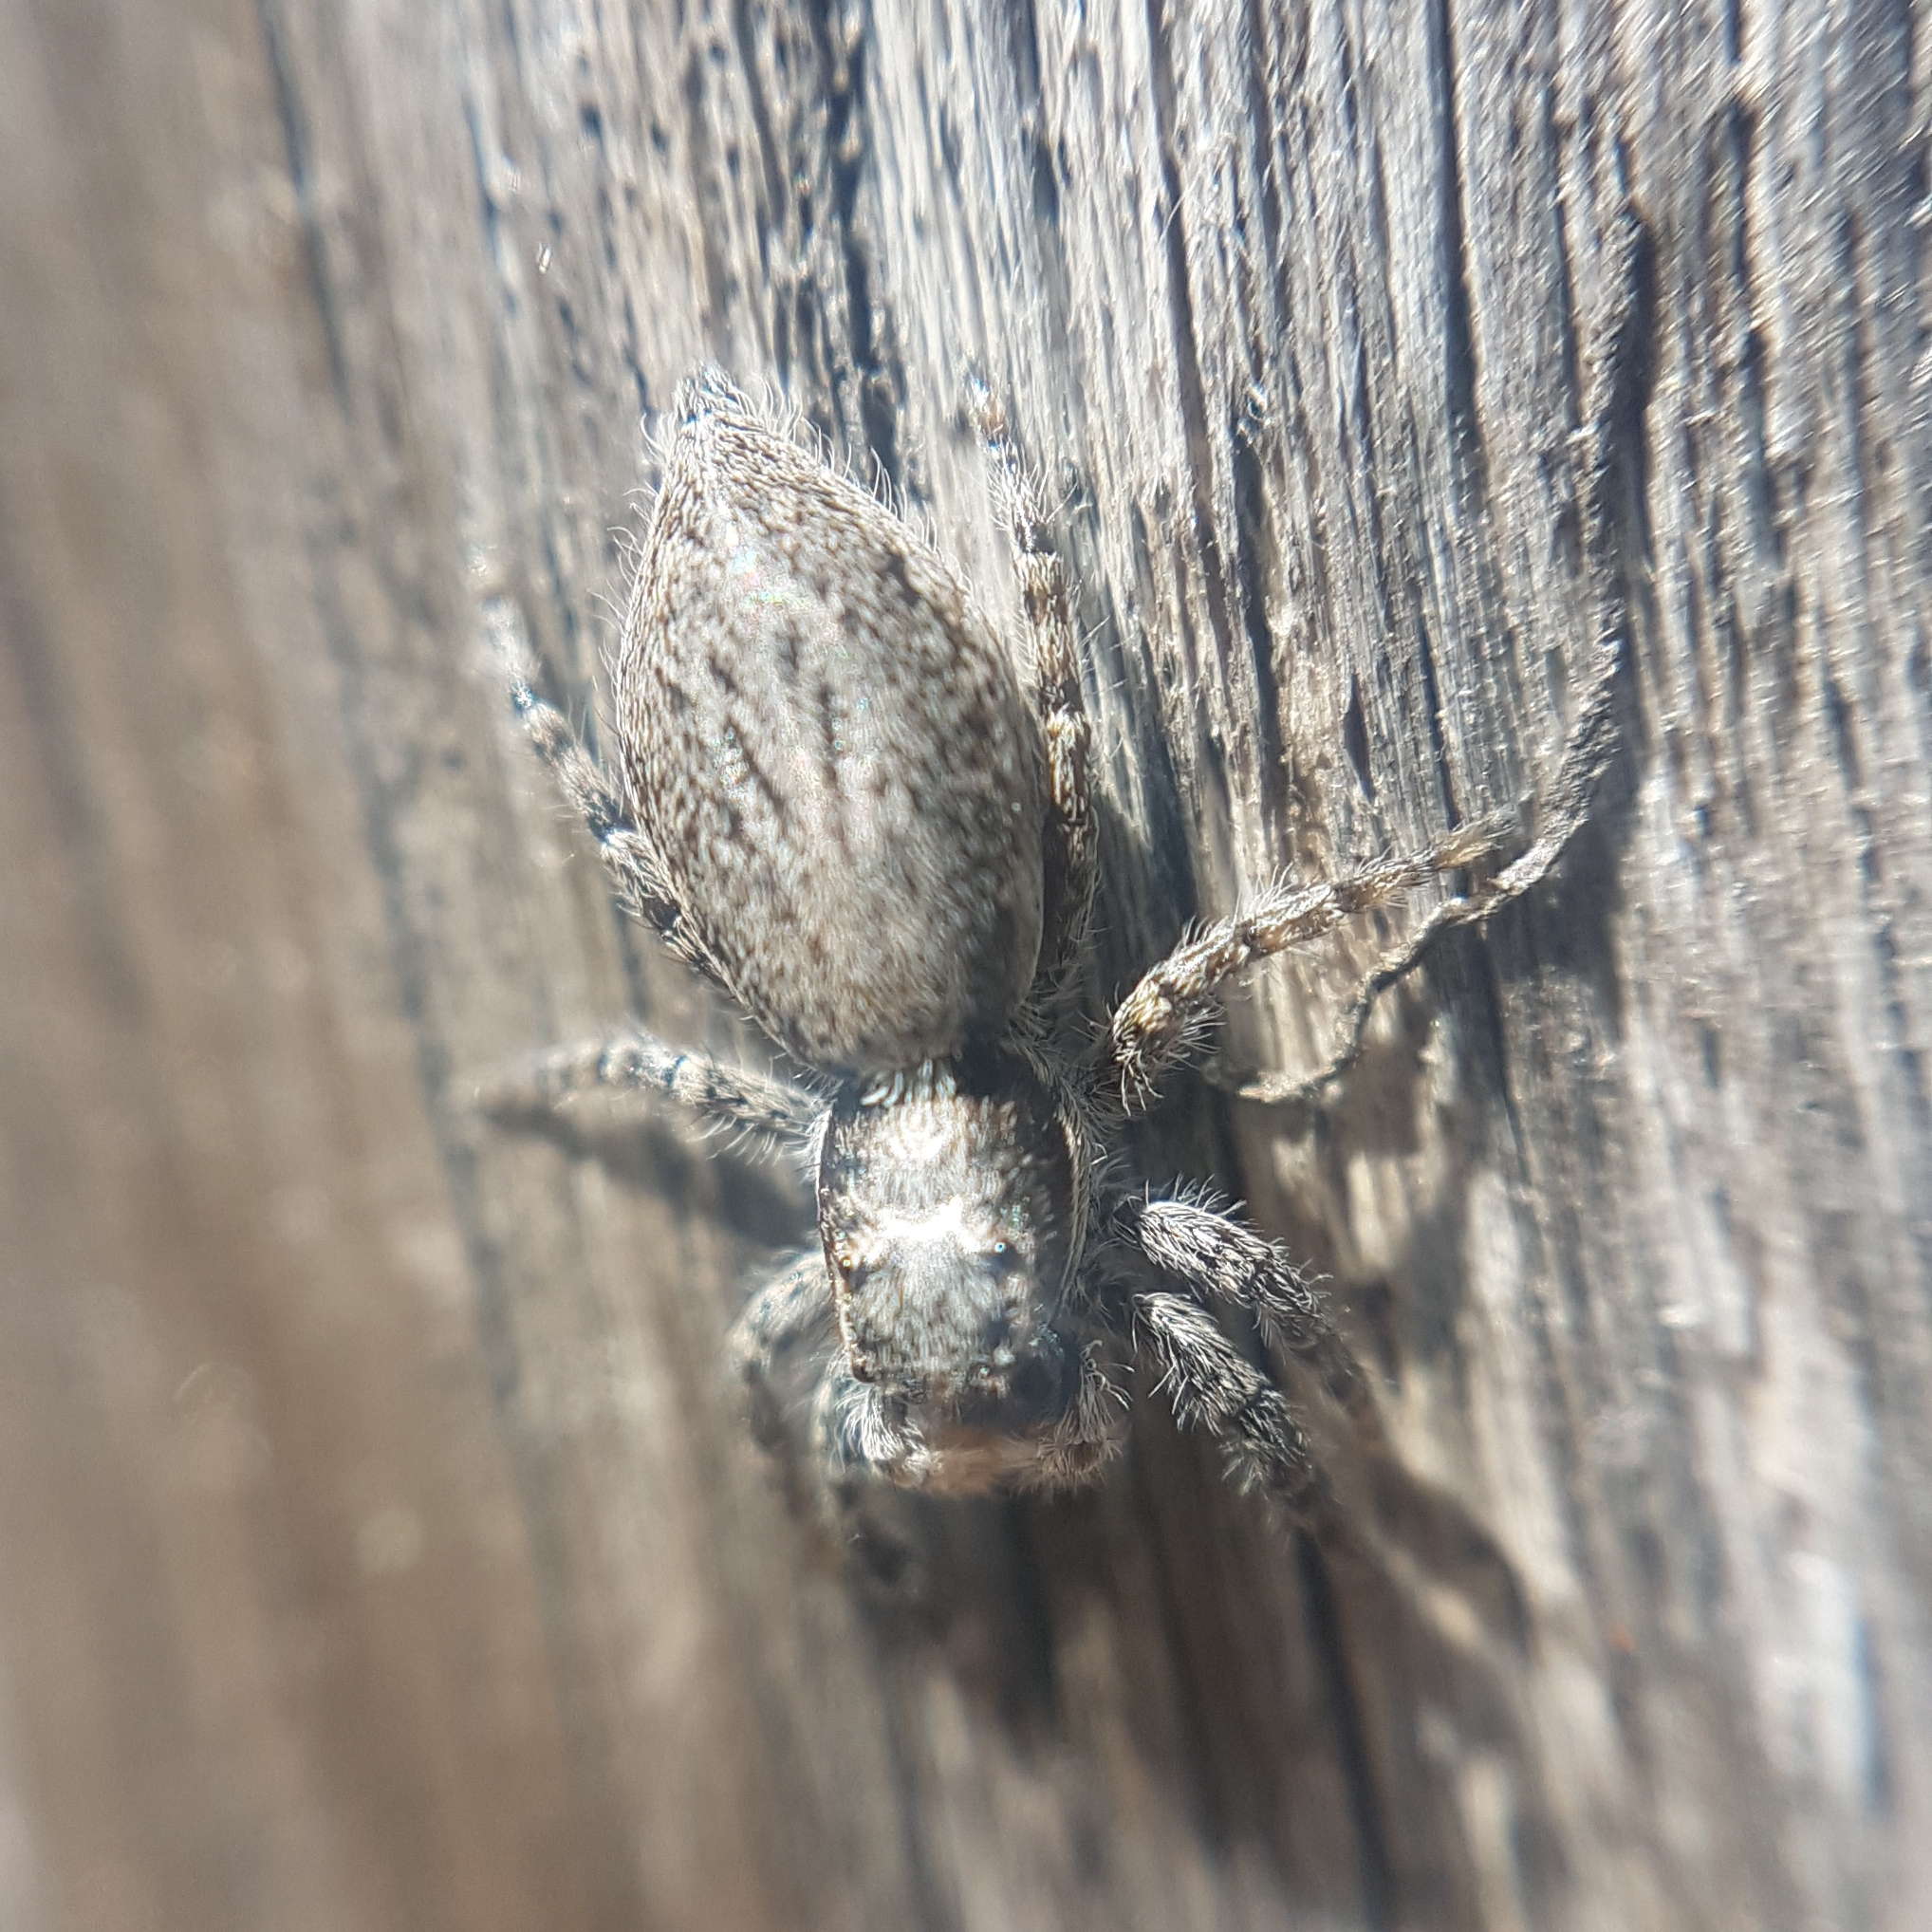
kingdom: Animalia
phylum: Arthropoda
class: Arachnida
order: Araneae
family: Salticidae
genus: Menemerus
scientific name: Menemerus taeniatus
